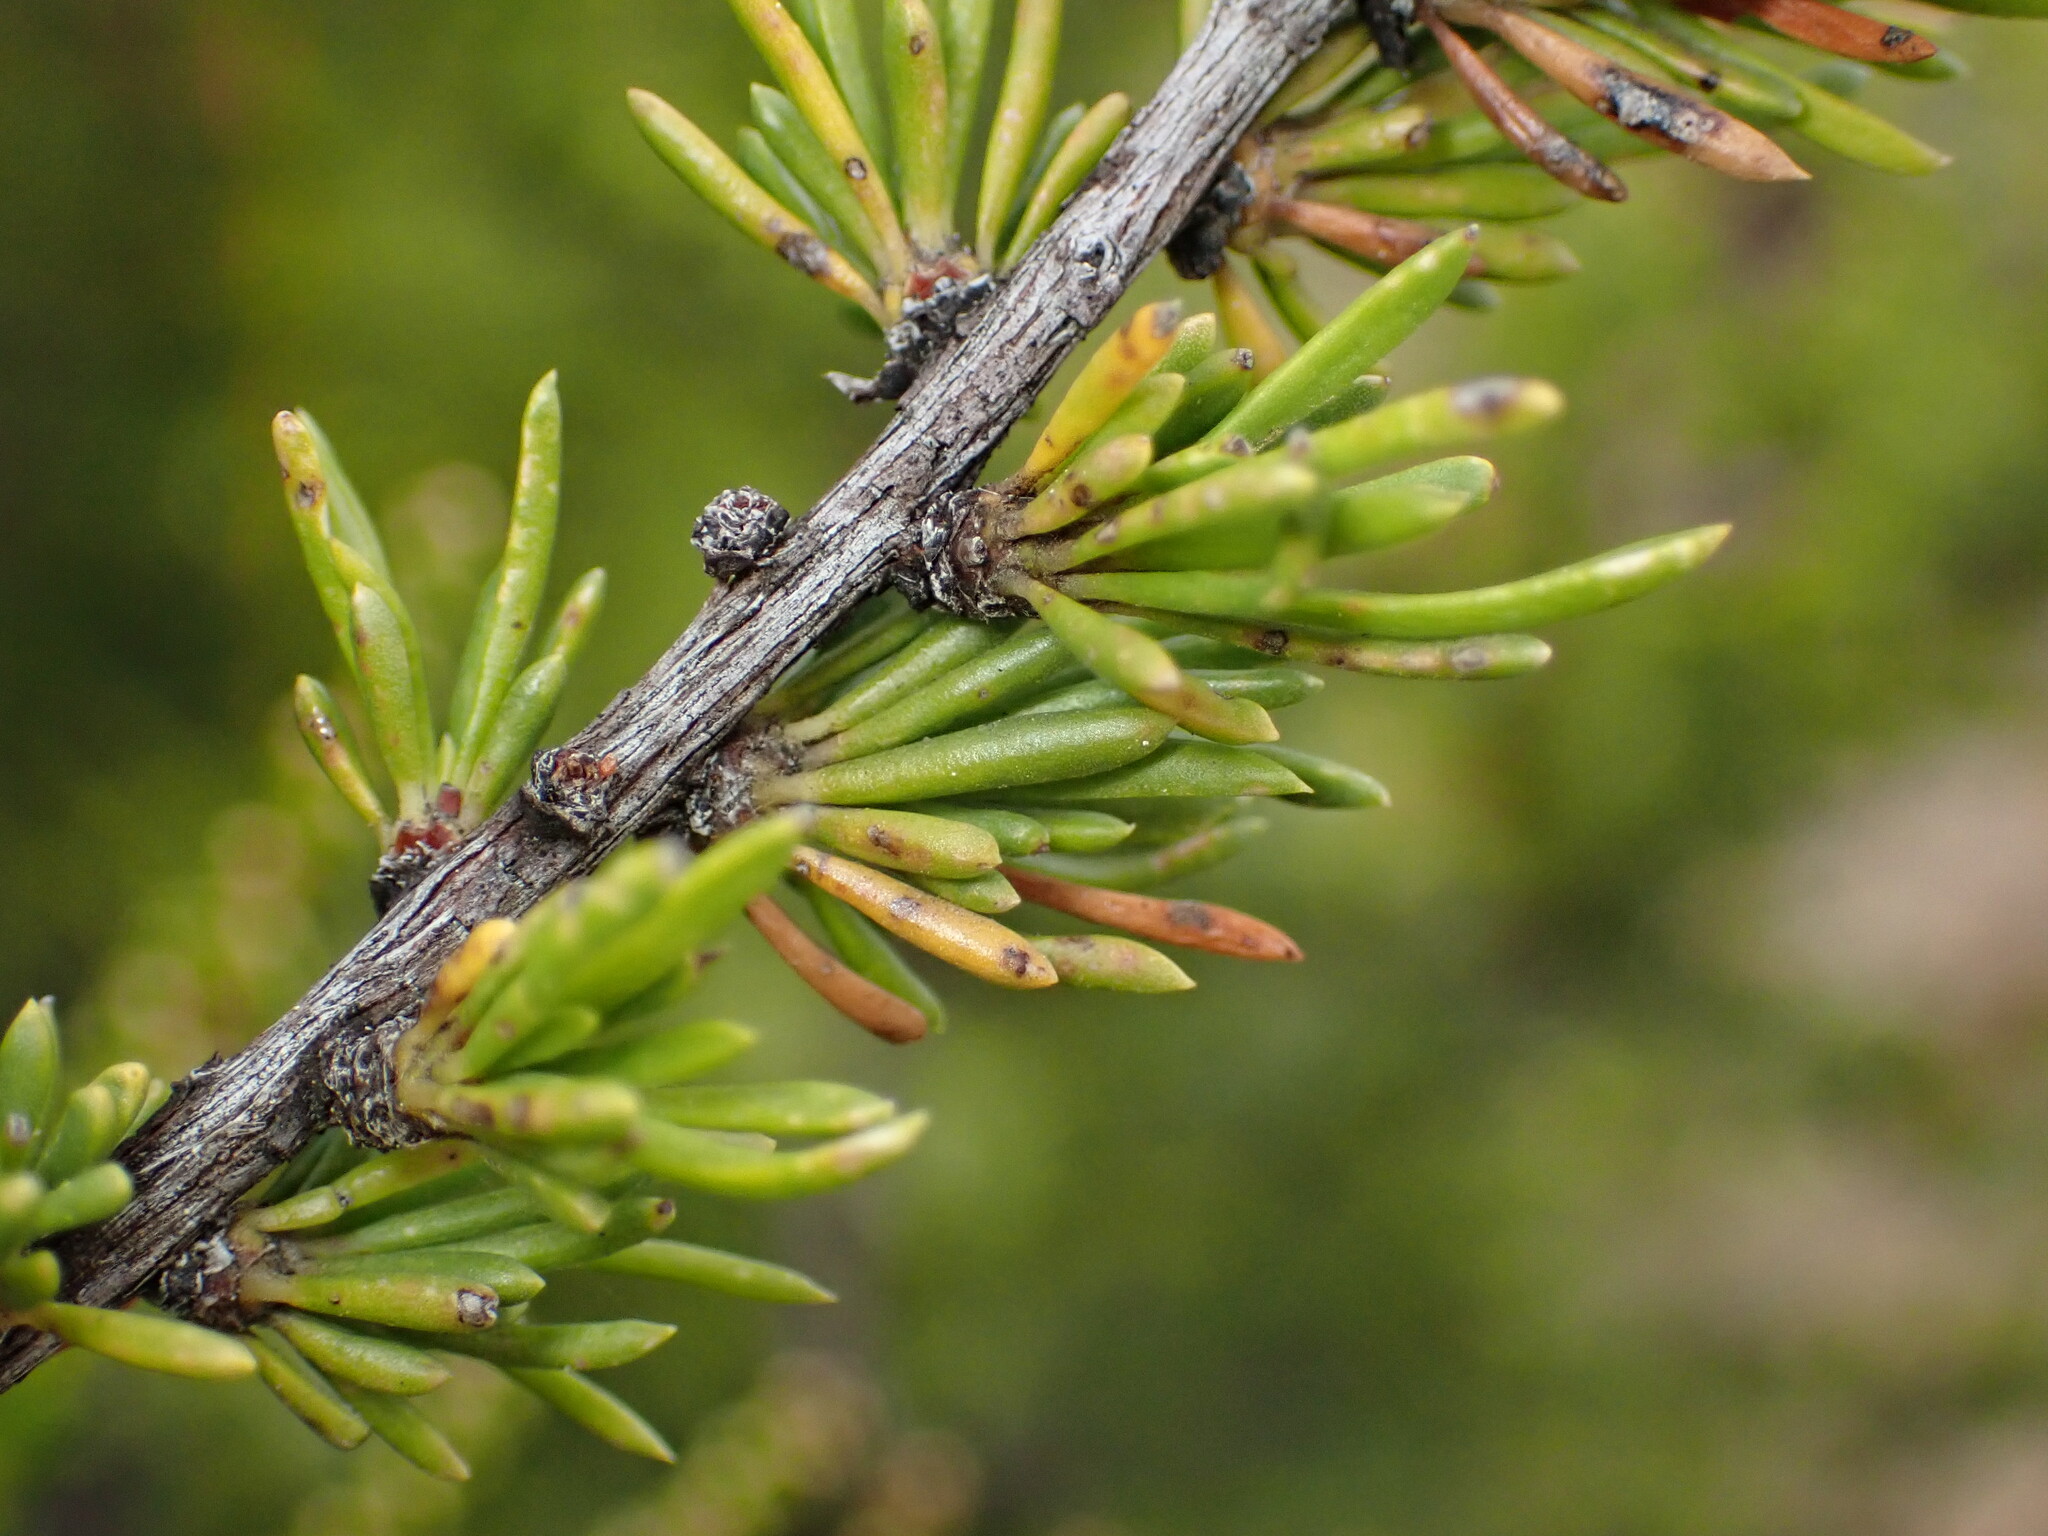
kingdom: Plantae
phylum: Tracheophyta
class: Magnoliopsida
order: Rosales
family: Rosaceae
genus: Adenostoma
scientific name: Adenostoma fasciculatum
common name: Chamise
